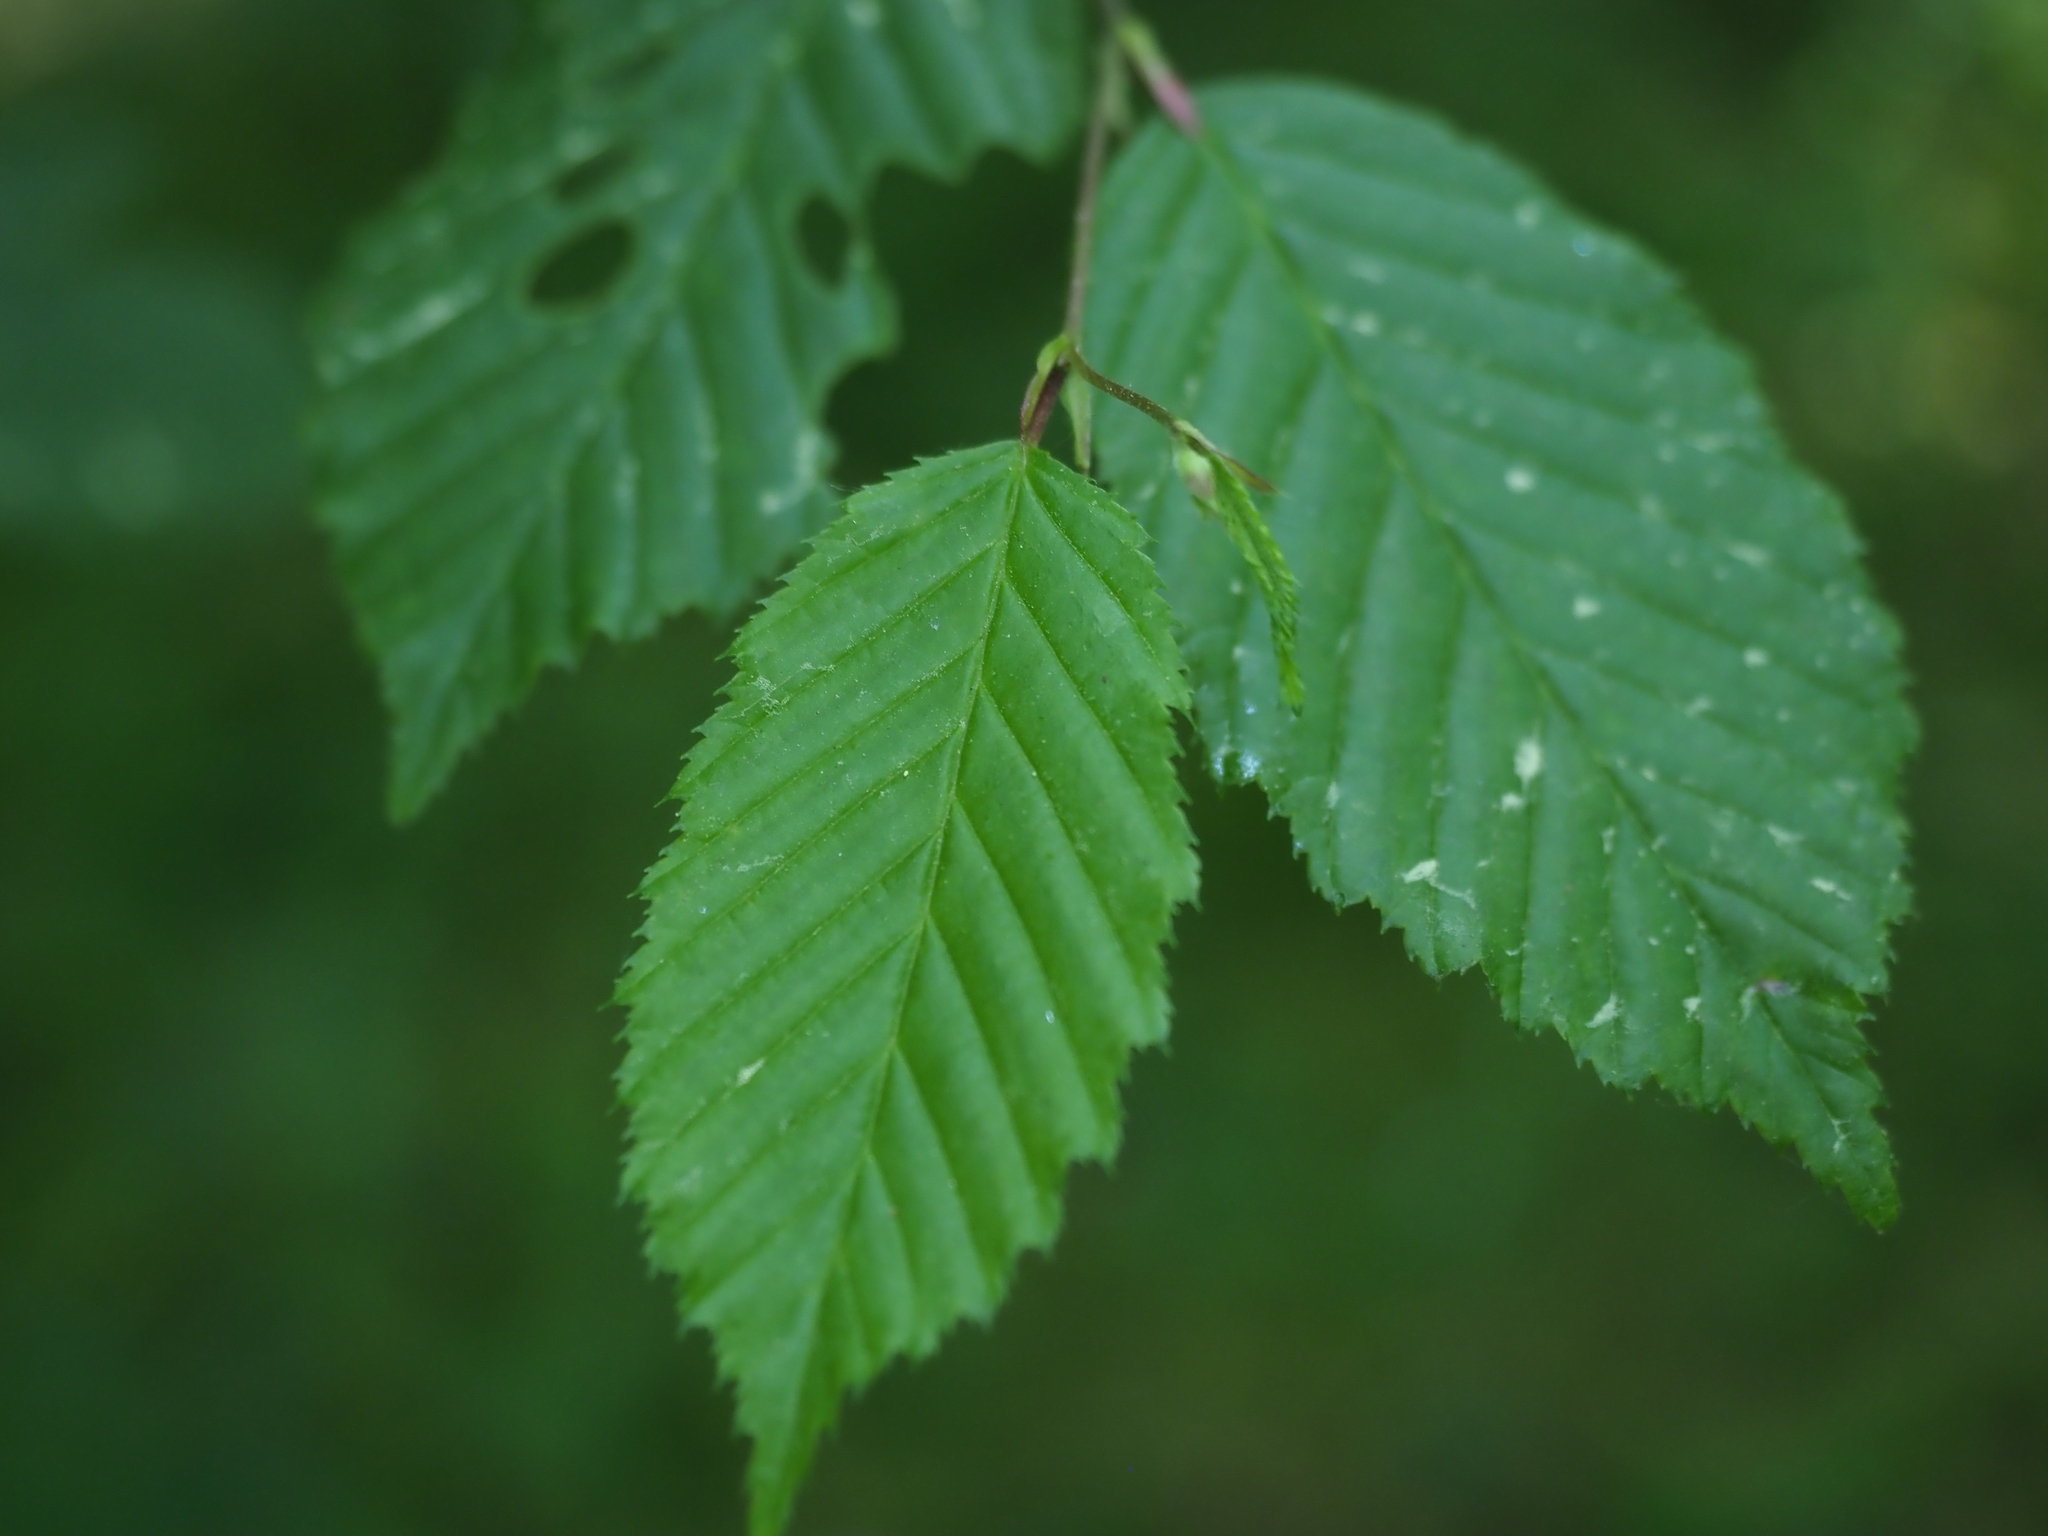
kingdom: Plantae
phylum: Tracheophyta
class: Magnoliopsida
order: Fagales
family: Betulaceae
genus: Carpinus
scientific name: Carpinus betulus
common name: Hornbeam
